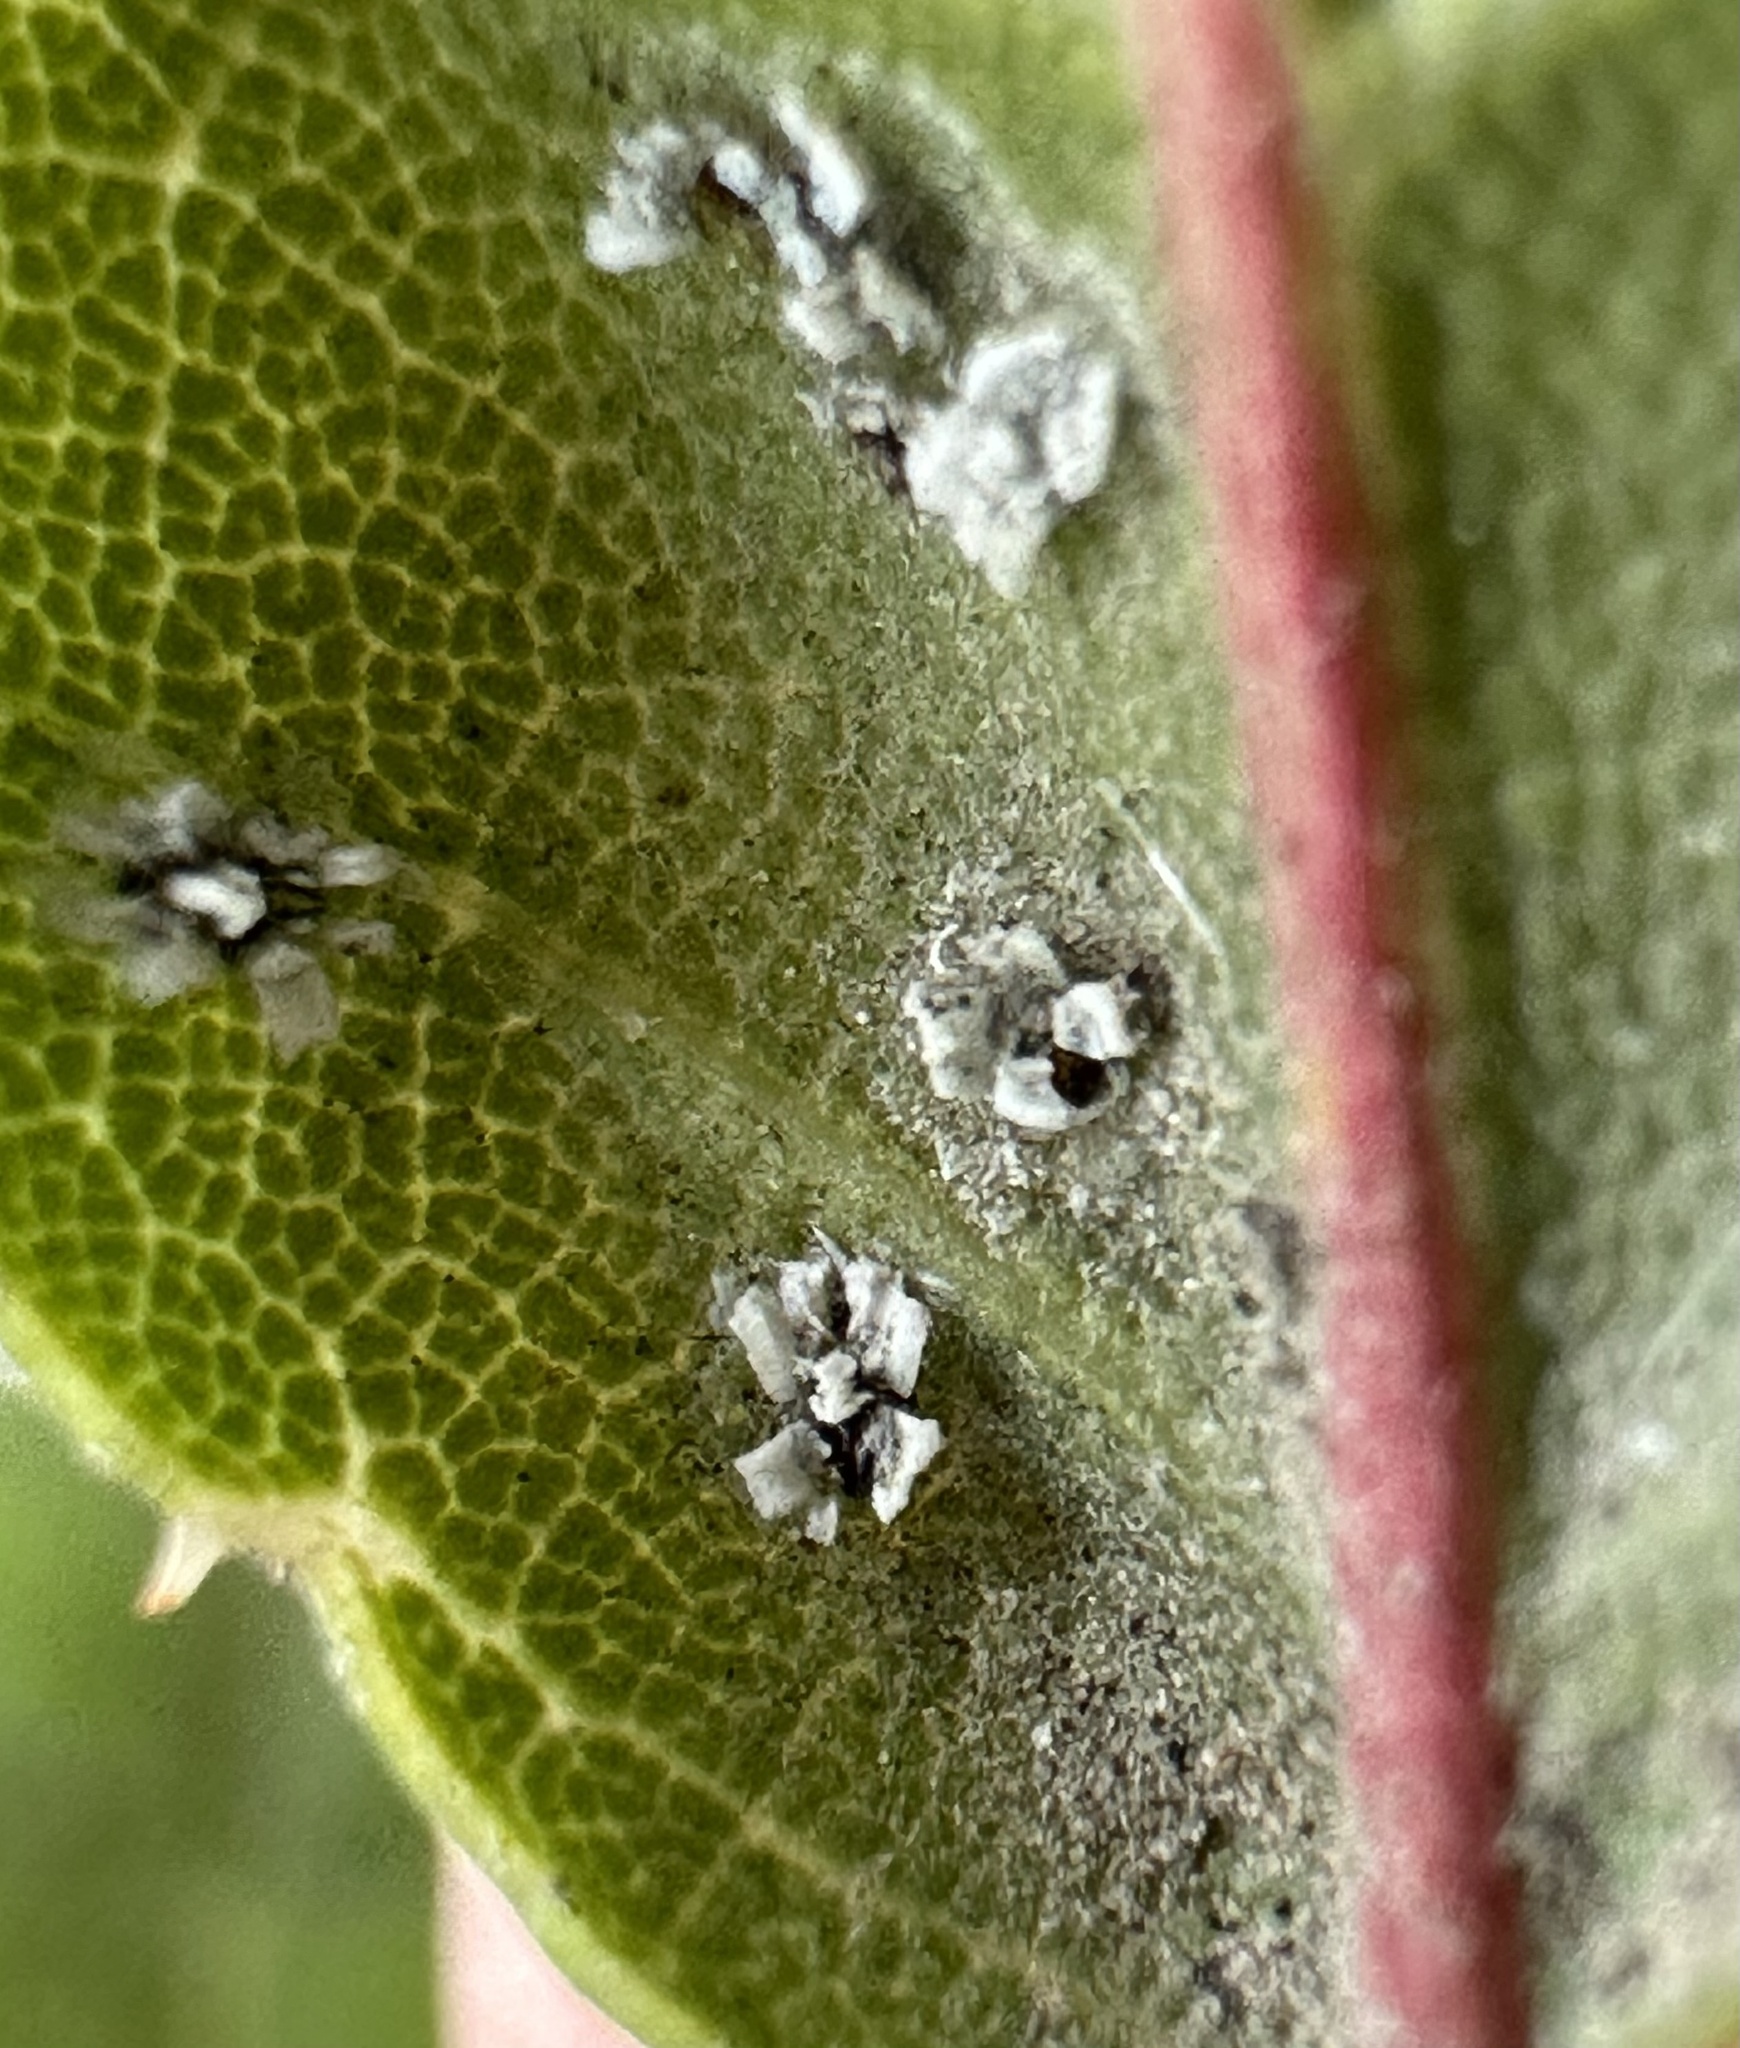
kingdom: Animalia
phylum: Arthropoda
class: Insecta
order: Hemiptera
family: Aleyrodidae
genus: Aleuroplatus
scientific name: Aleuroplatus coronata
